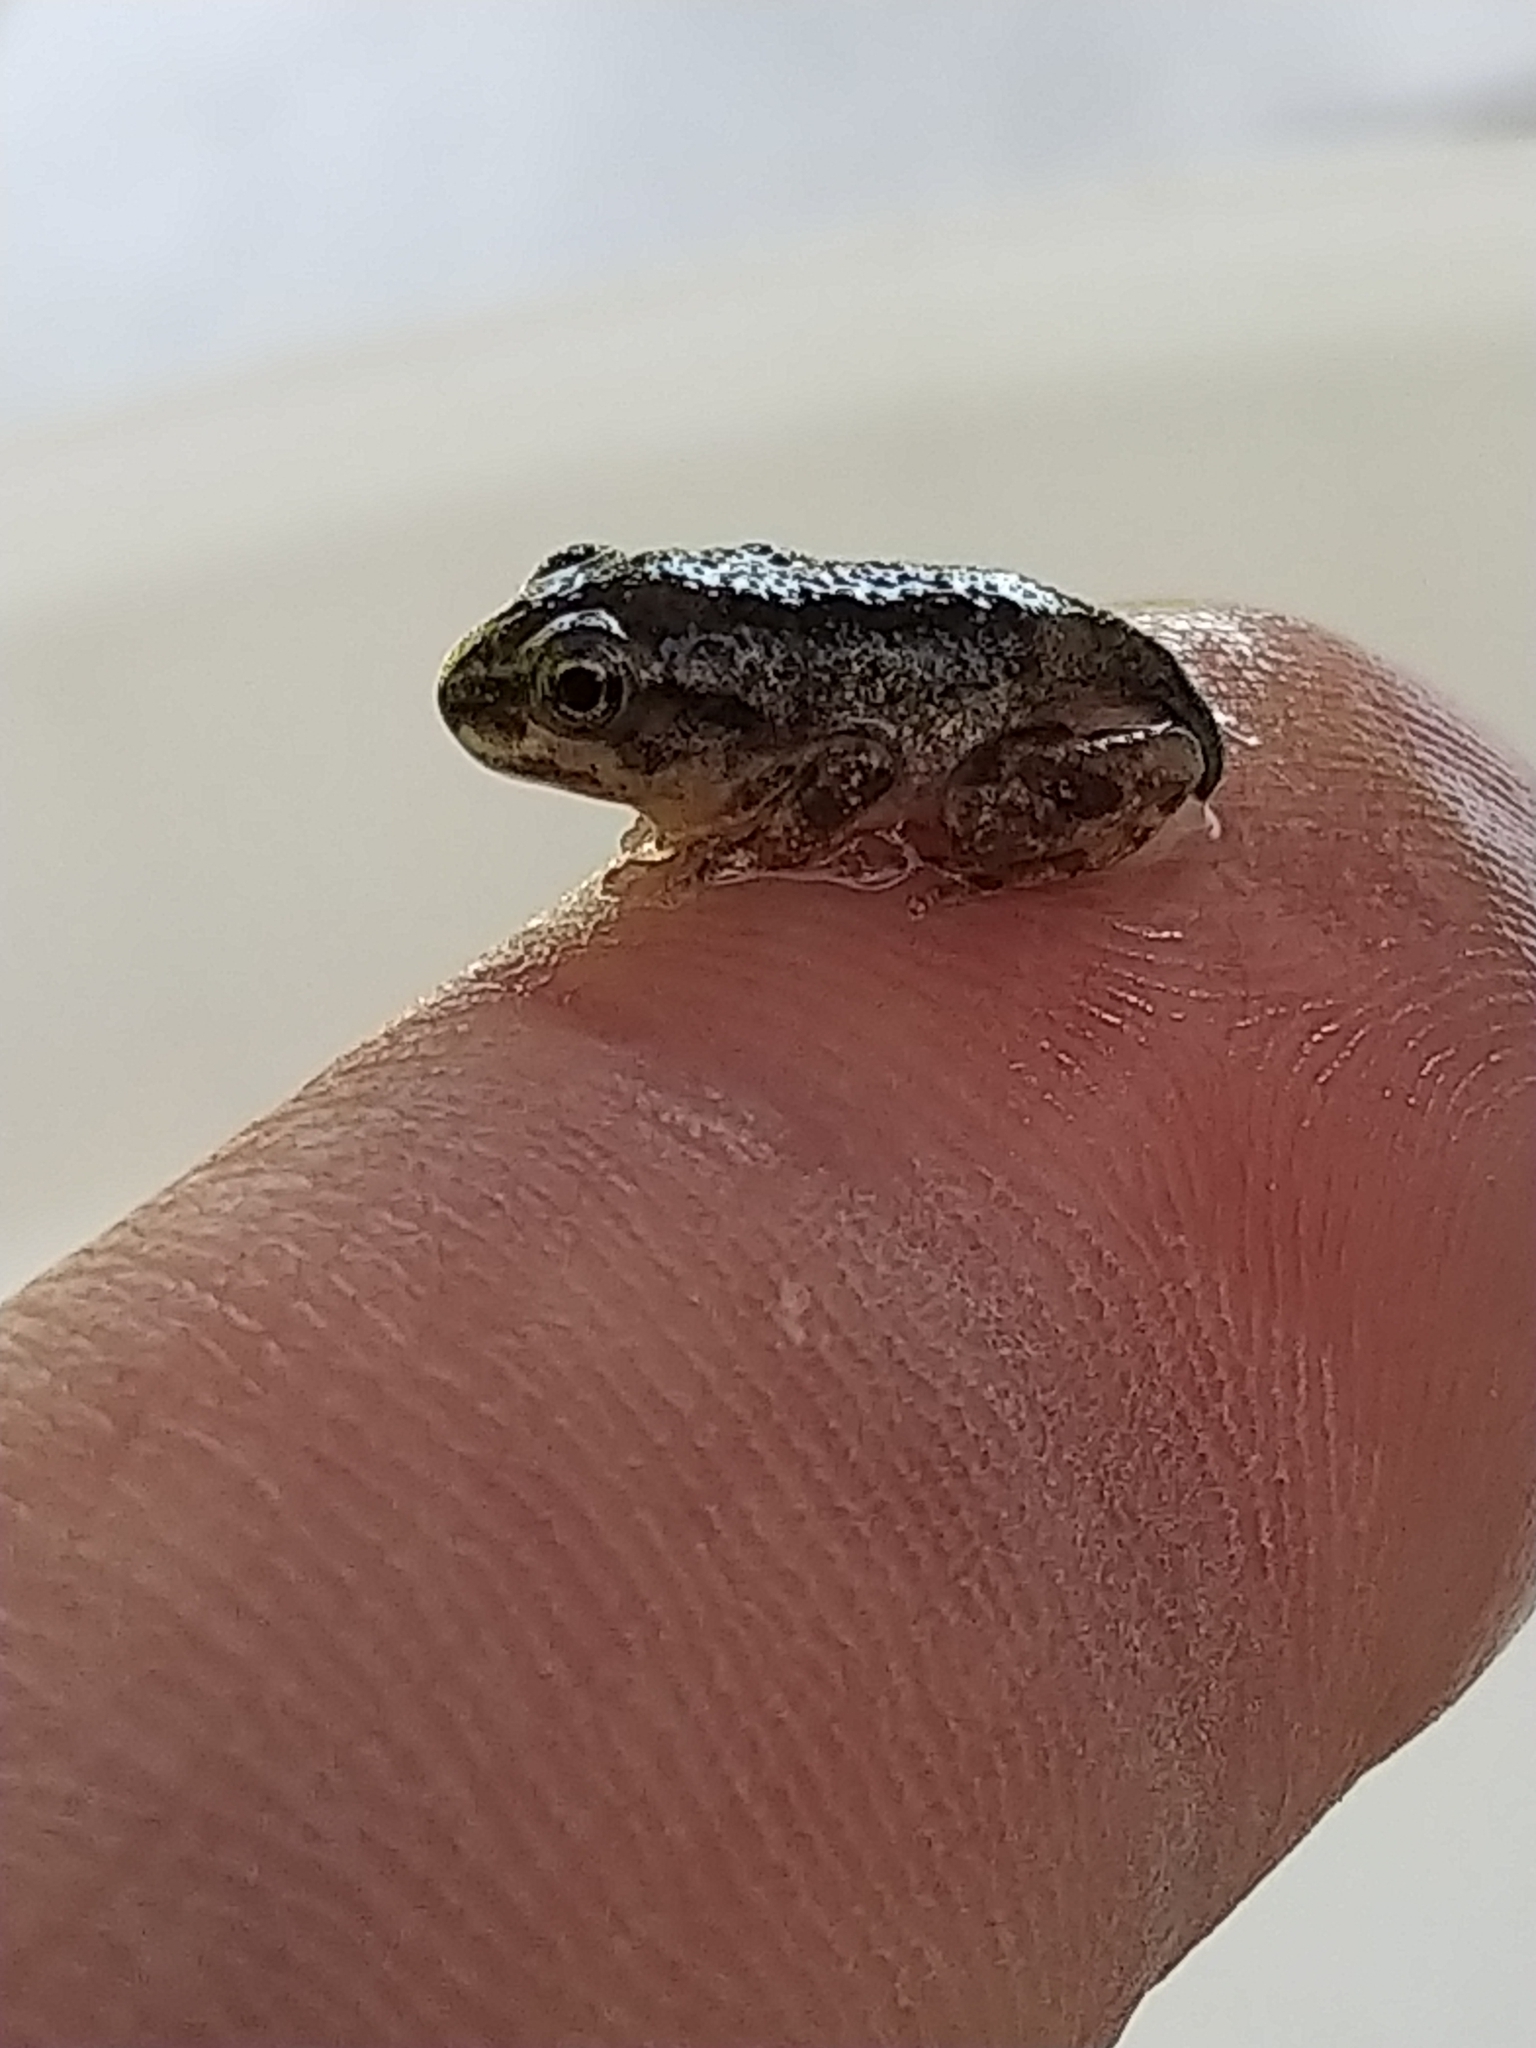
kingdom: Animalia
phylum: Chordata
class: Amphibia
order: Anura
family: Hylidae
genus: Pseudacris
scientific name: Pseudacris regilla
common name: Pacific chorus frog
